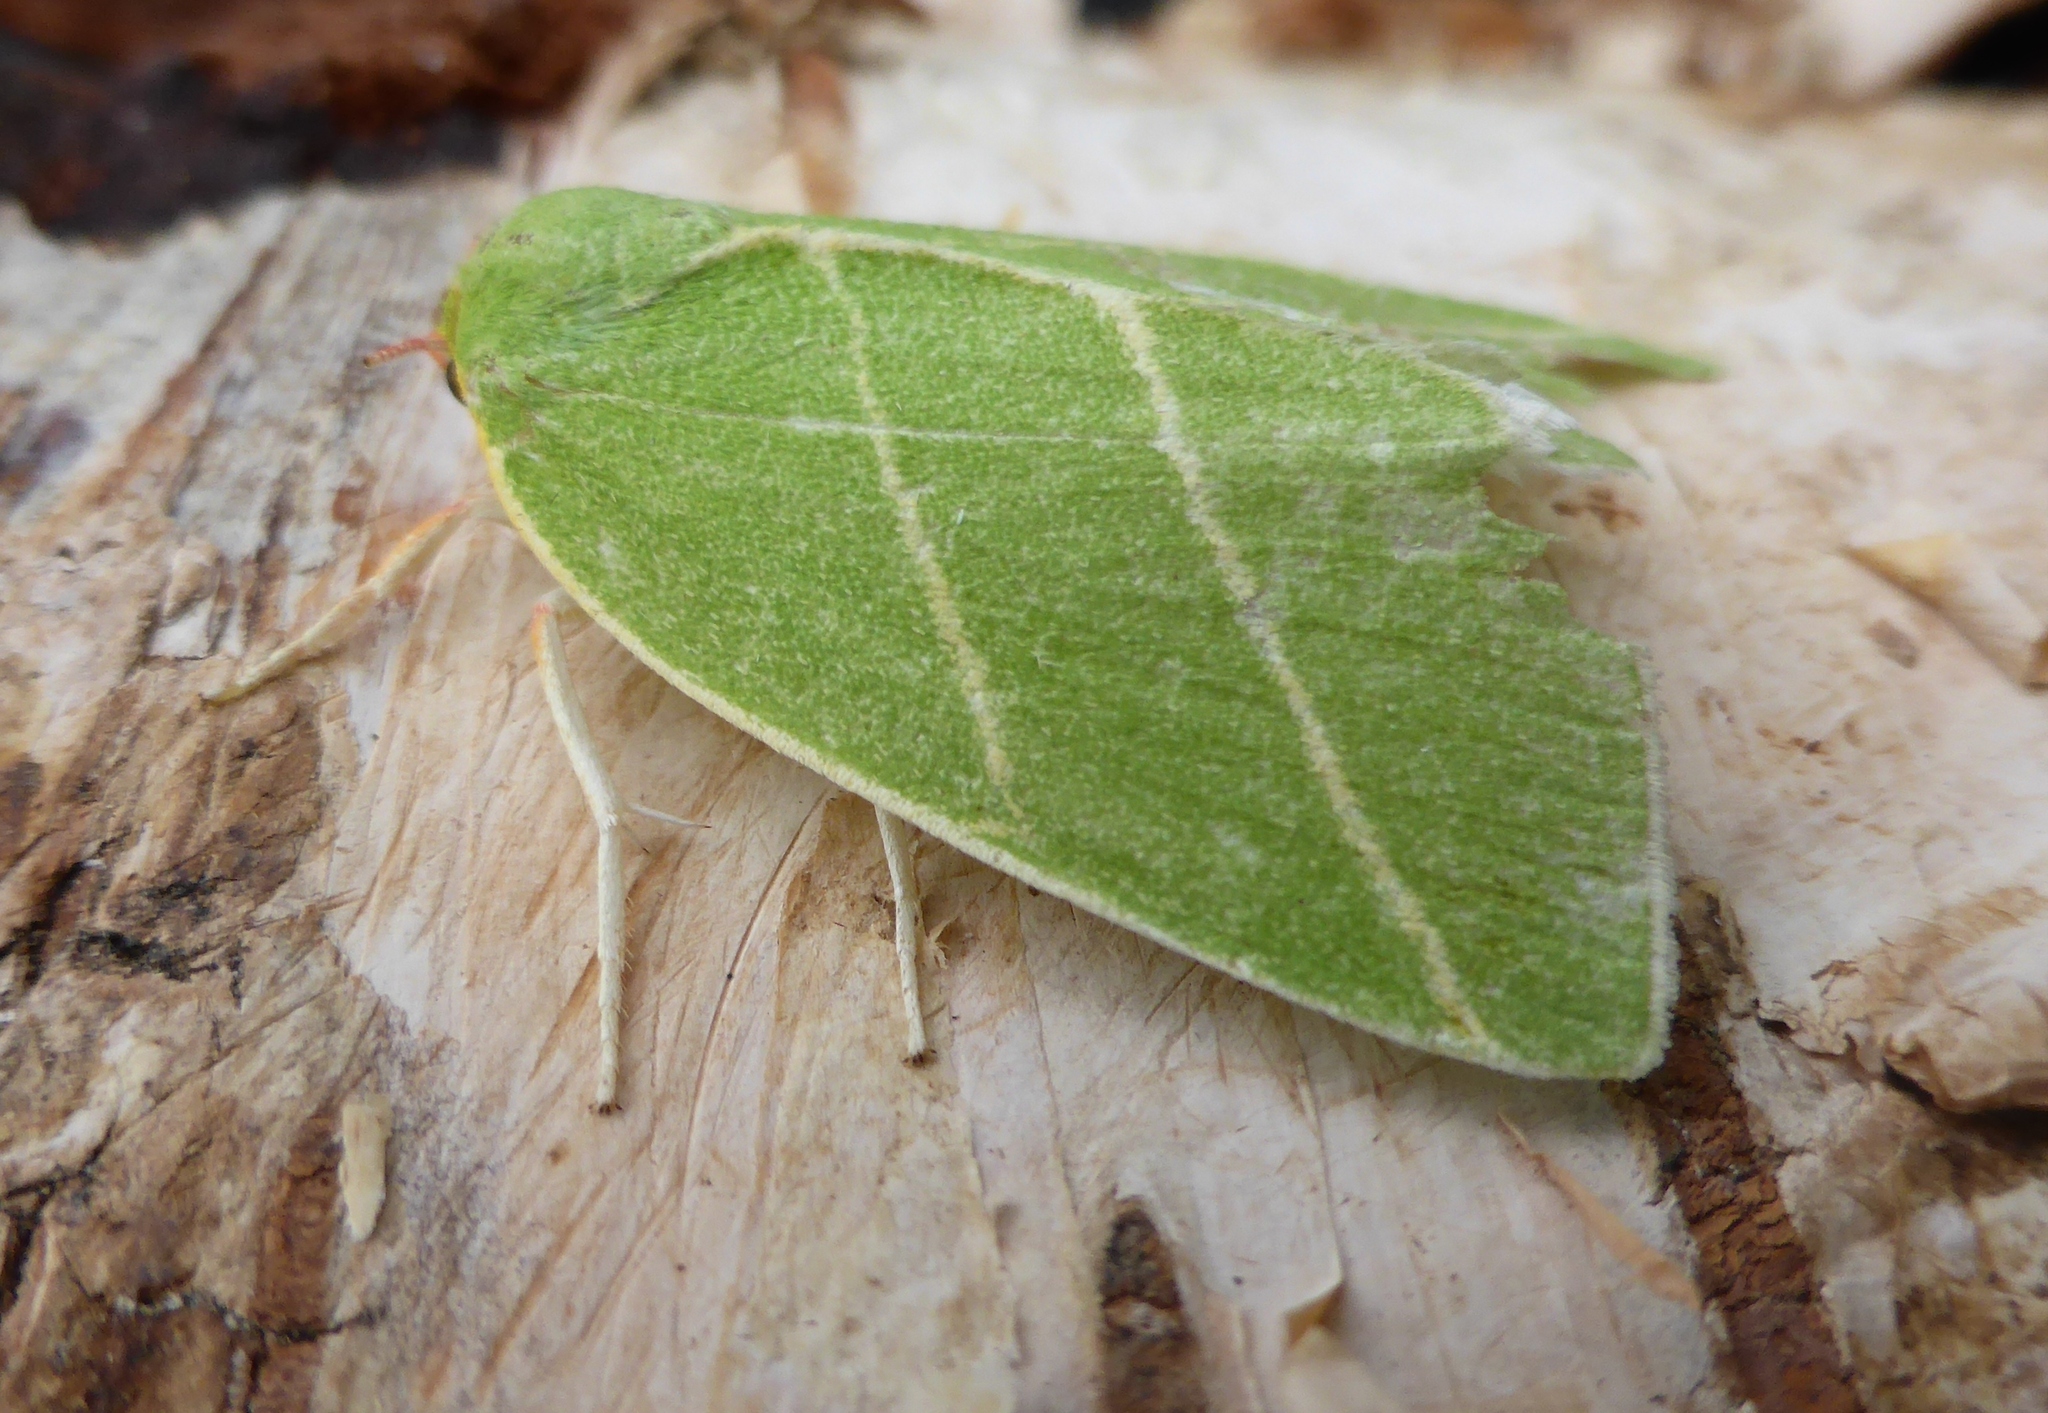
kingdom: Animalia
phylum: Arthropoda
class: Insecta
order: Lepidoptera
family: Nolidae
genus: Bena
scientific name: Bena bicolorana
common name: Scarce silver-lines
